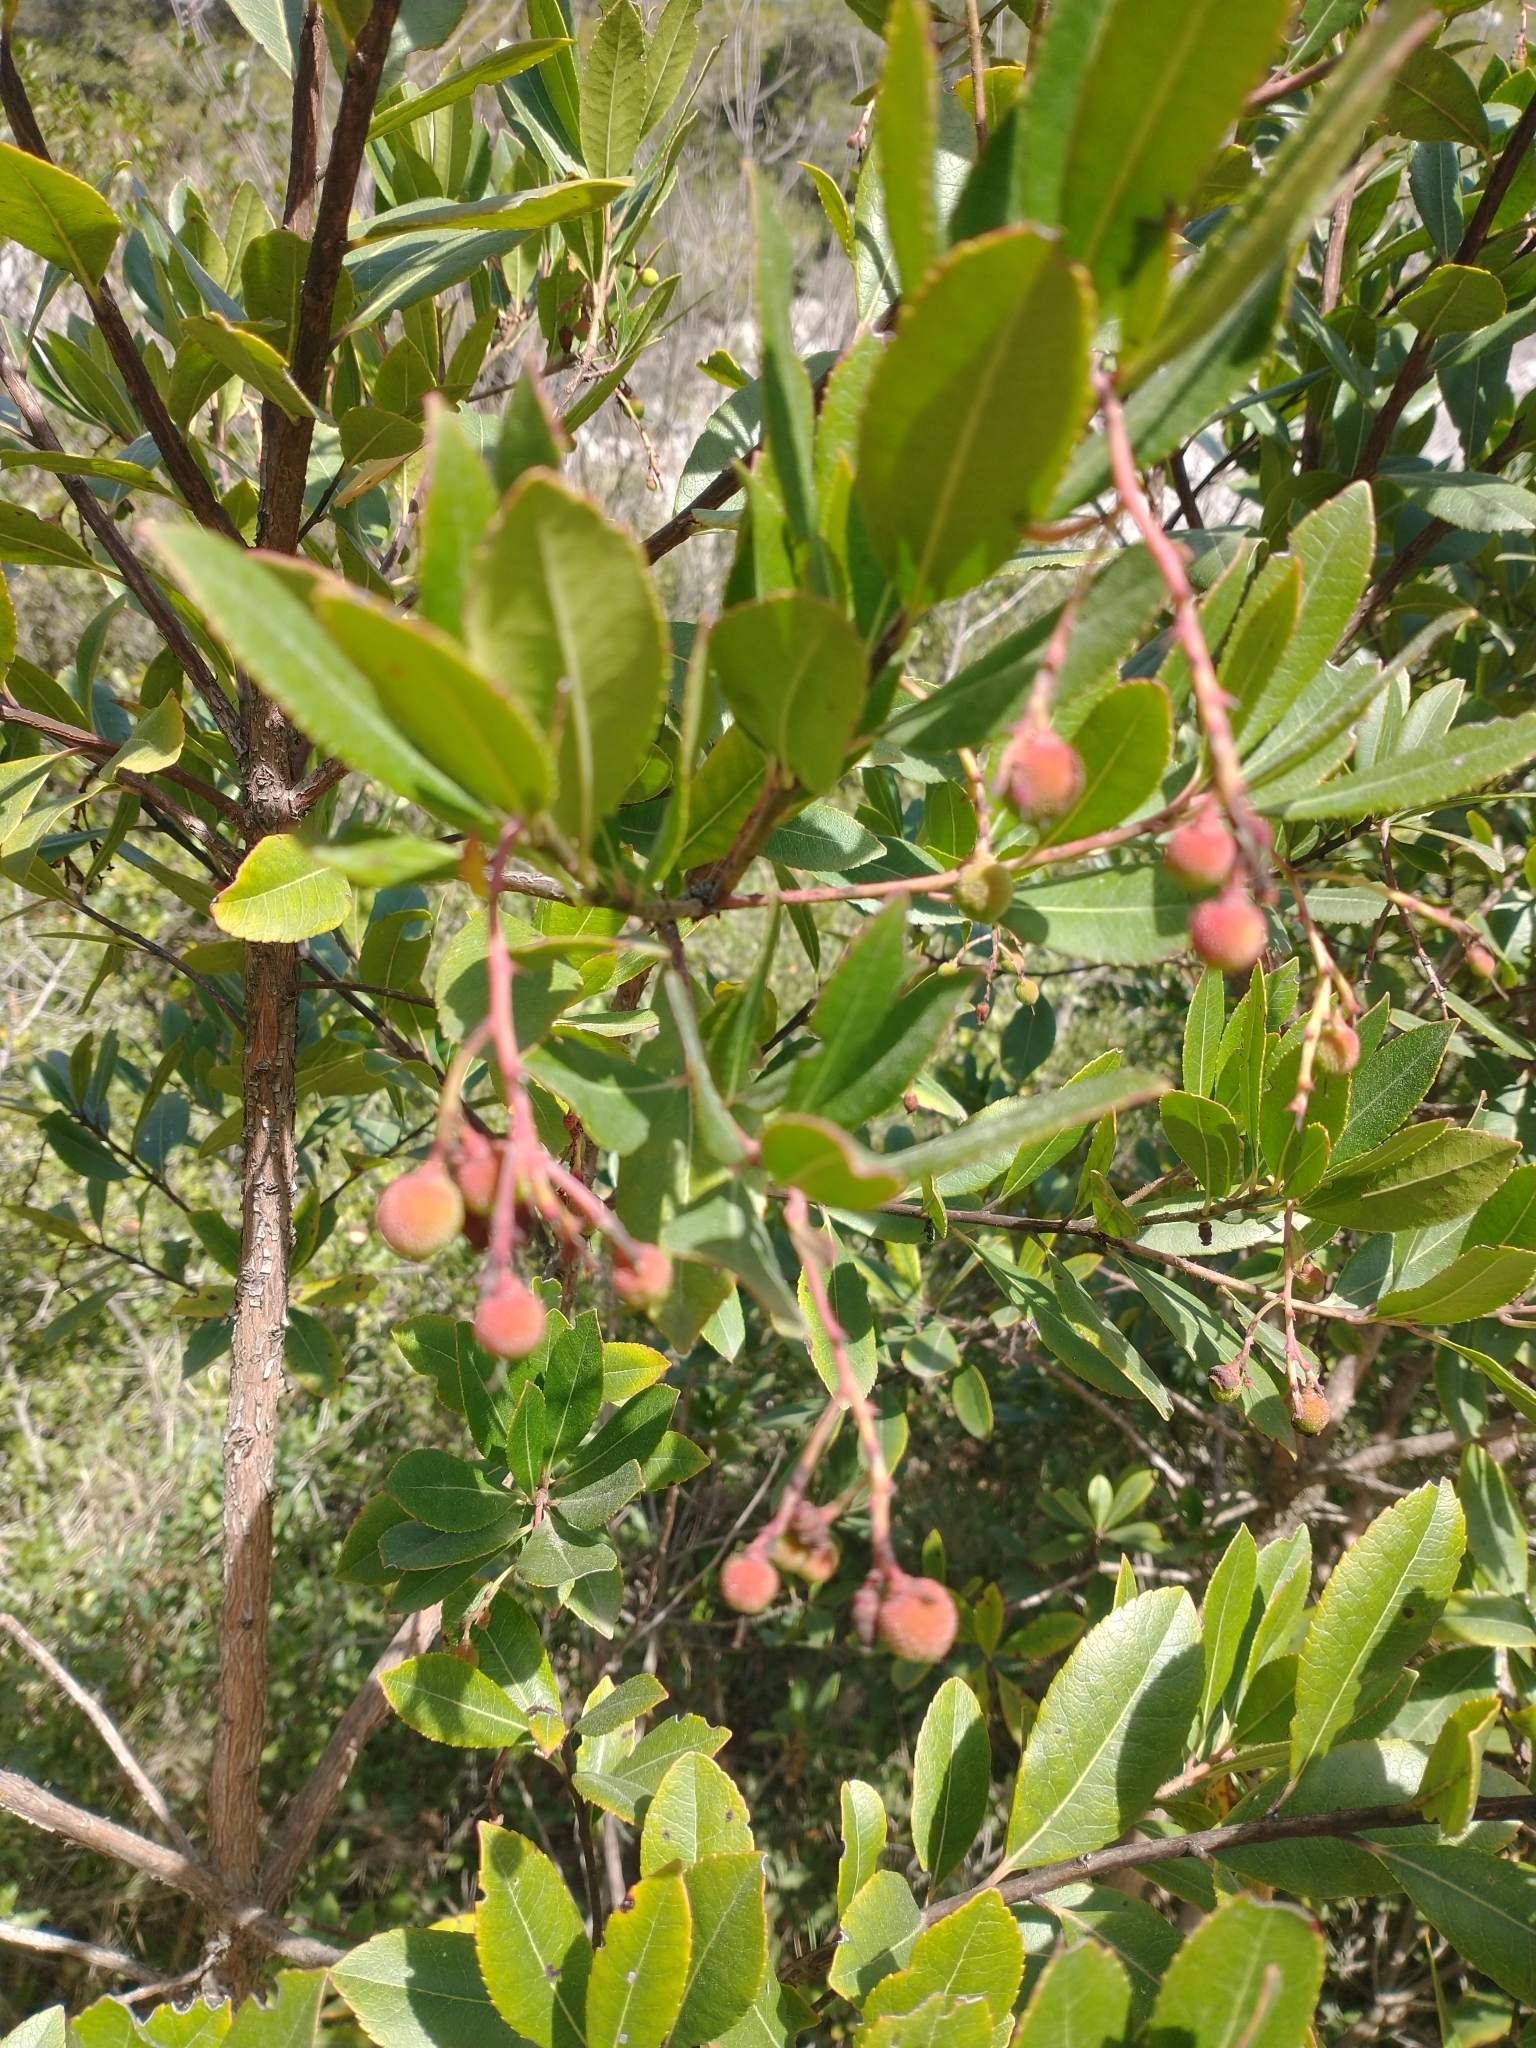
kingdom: Plantae
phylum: Tracheophyta
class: Magnoliopsida
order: Ericales
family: Ericaceae
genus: Arbutus
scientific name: Arbutus unedo
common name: Strawberry-tree
